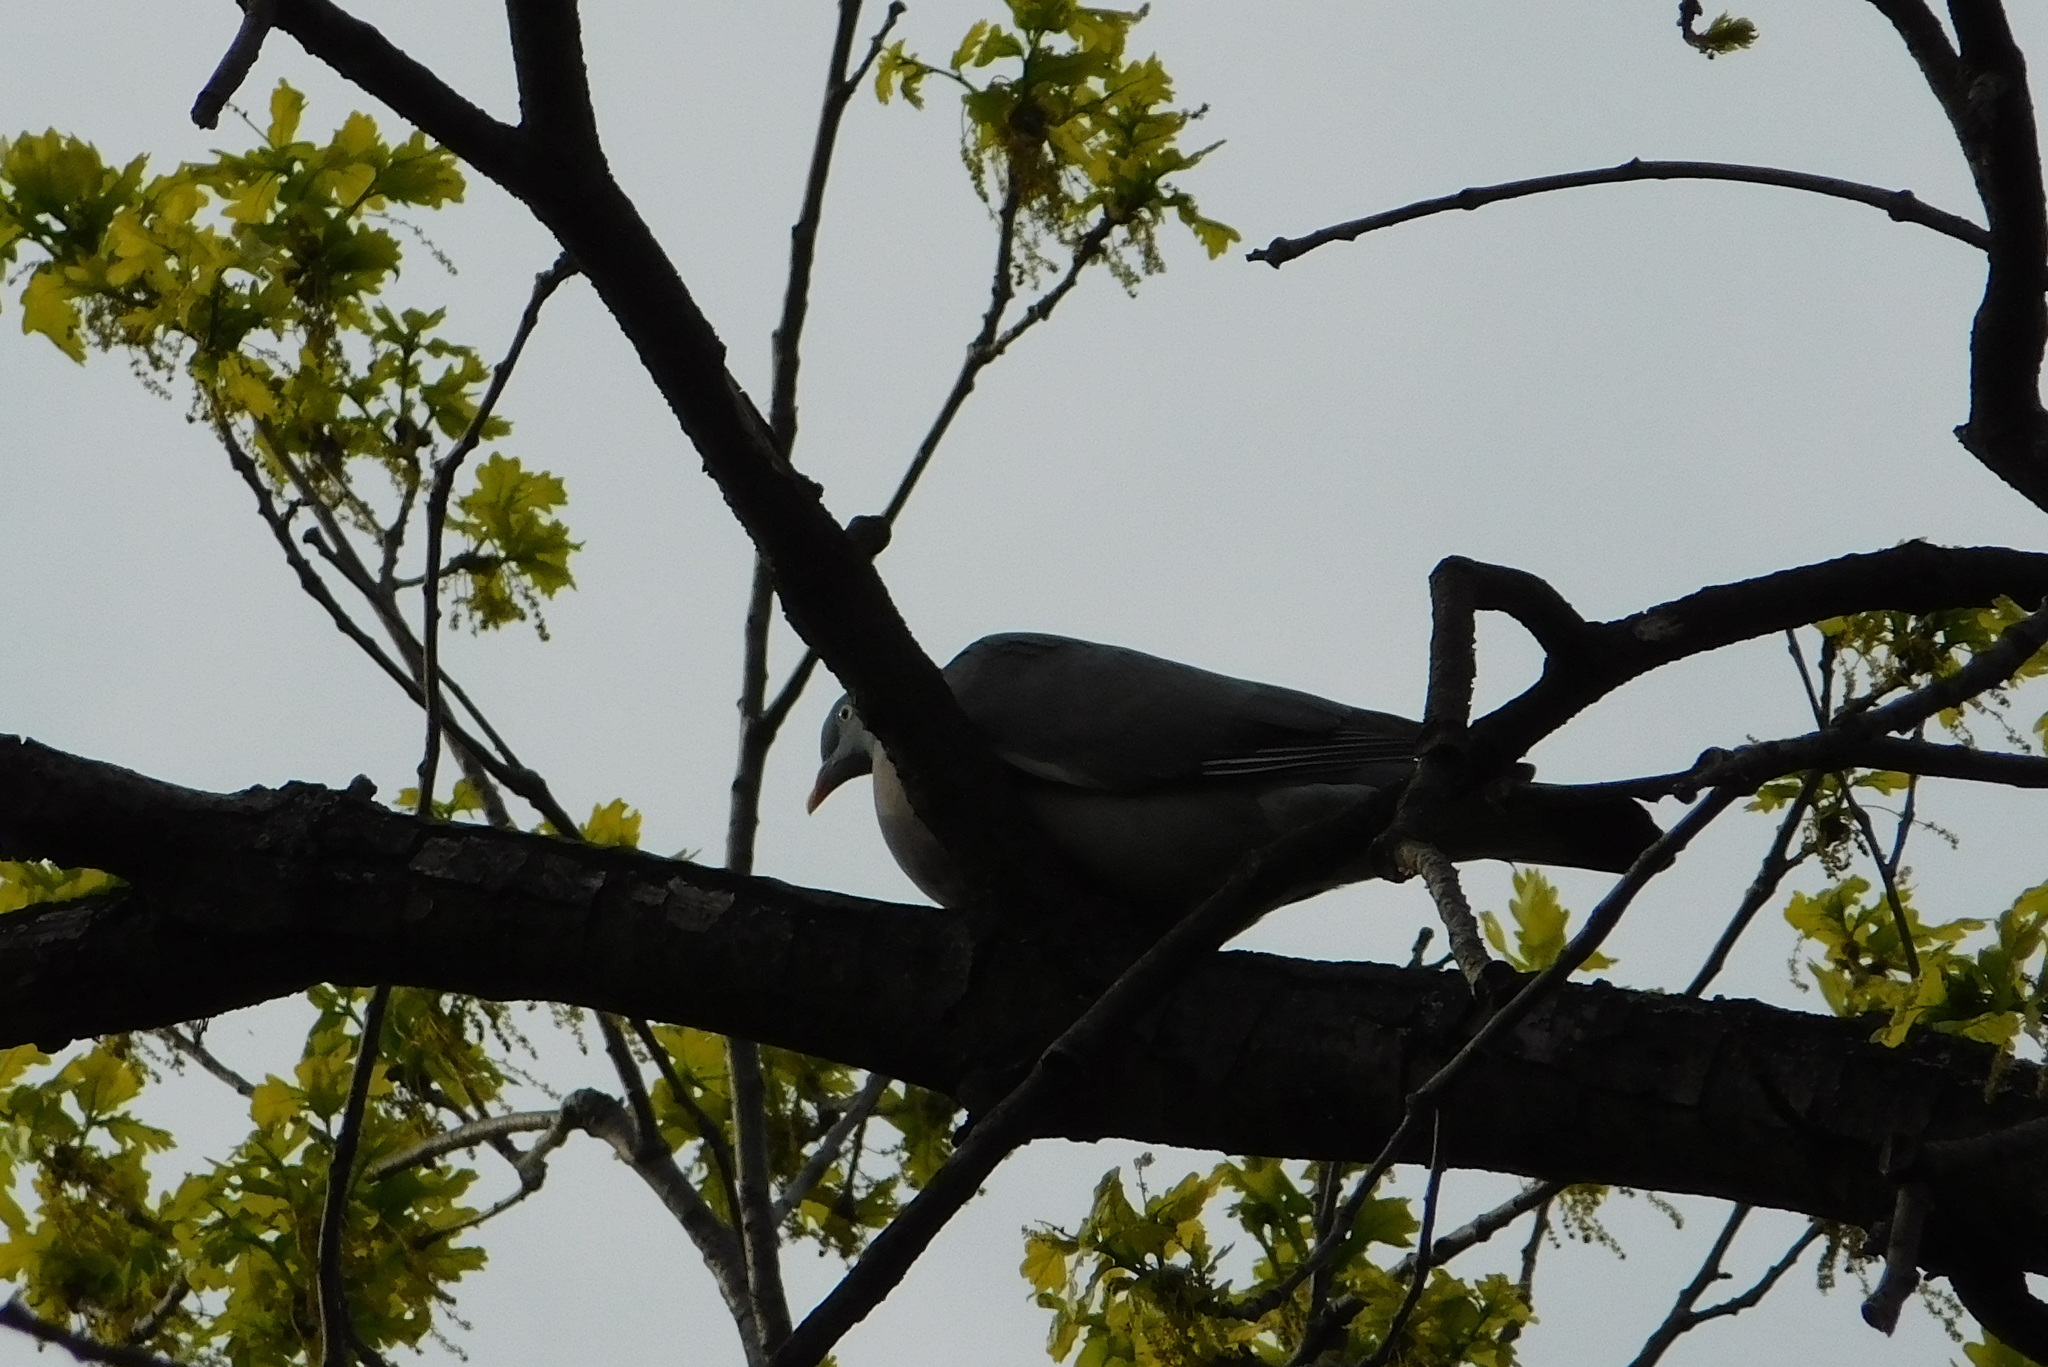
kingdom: Animalia
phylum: Chordata
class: Aves
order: Columbiformes
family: Columbidae
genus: Columba
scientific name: Columba palumbus
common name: Common wood pigeon
